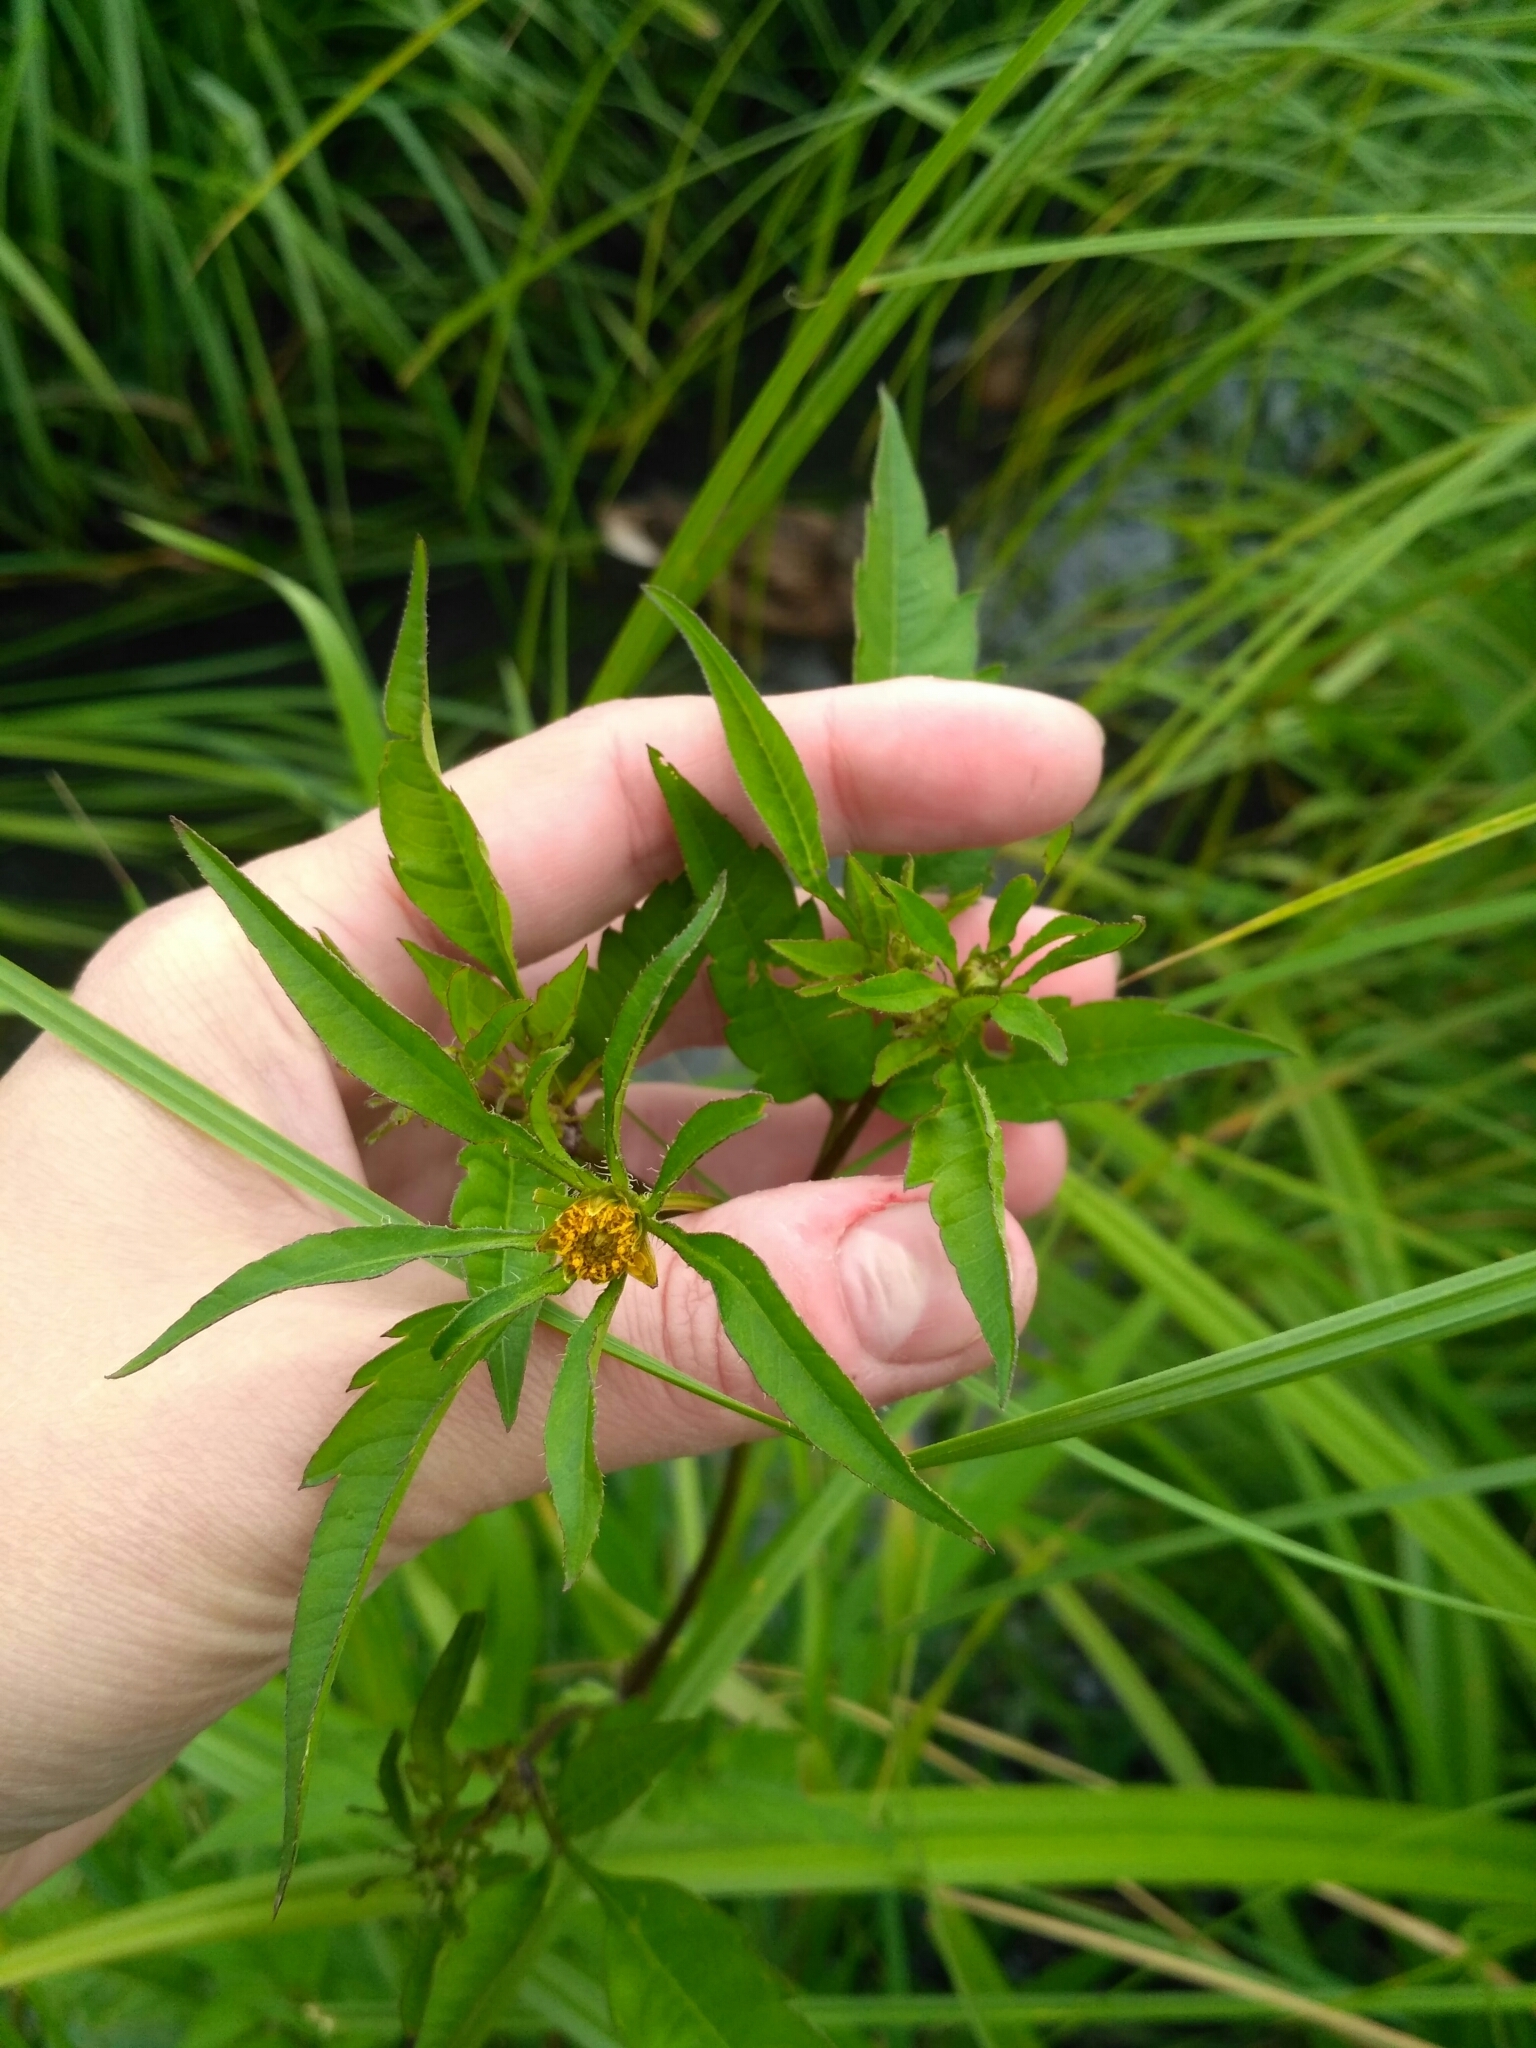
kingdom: Plantae
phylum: Tracheophyta
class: Magnoliopsida
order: Asterales
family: Asteraceae
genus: Bidens
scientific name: Bidens frondosa
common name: Beggarticks
